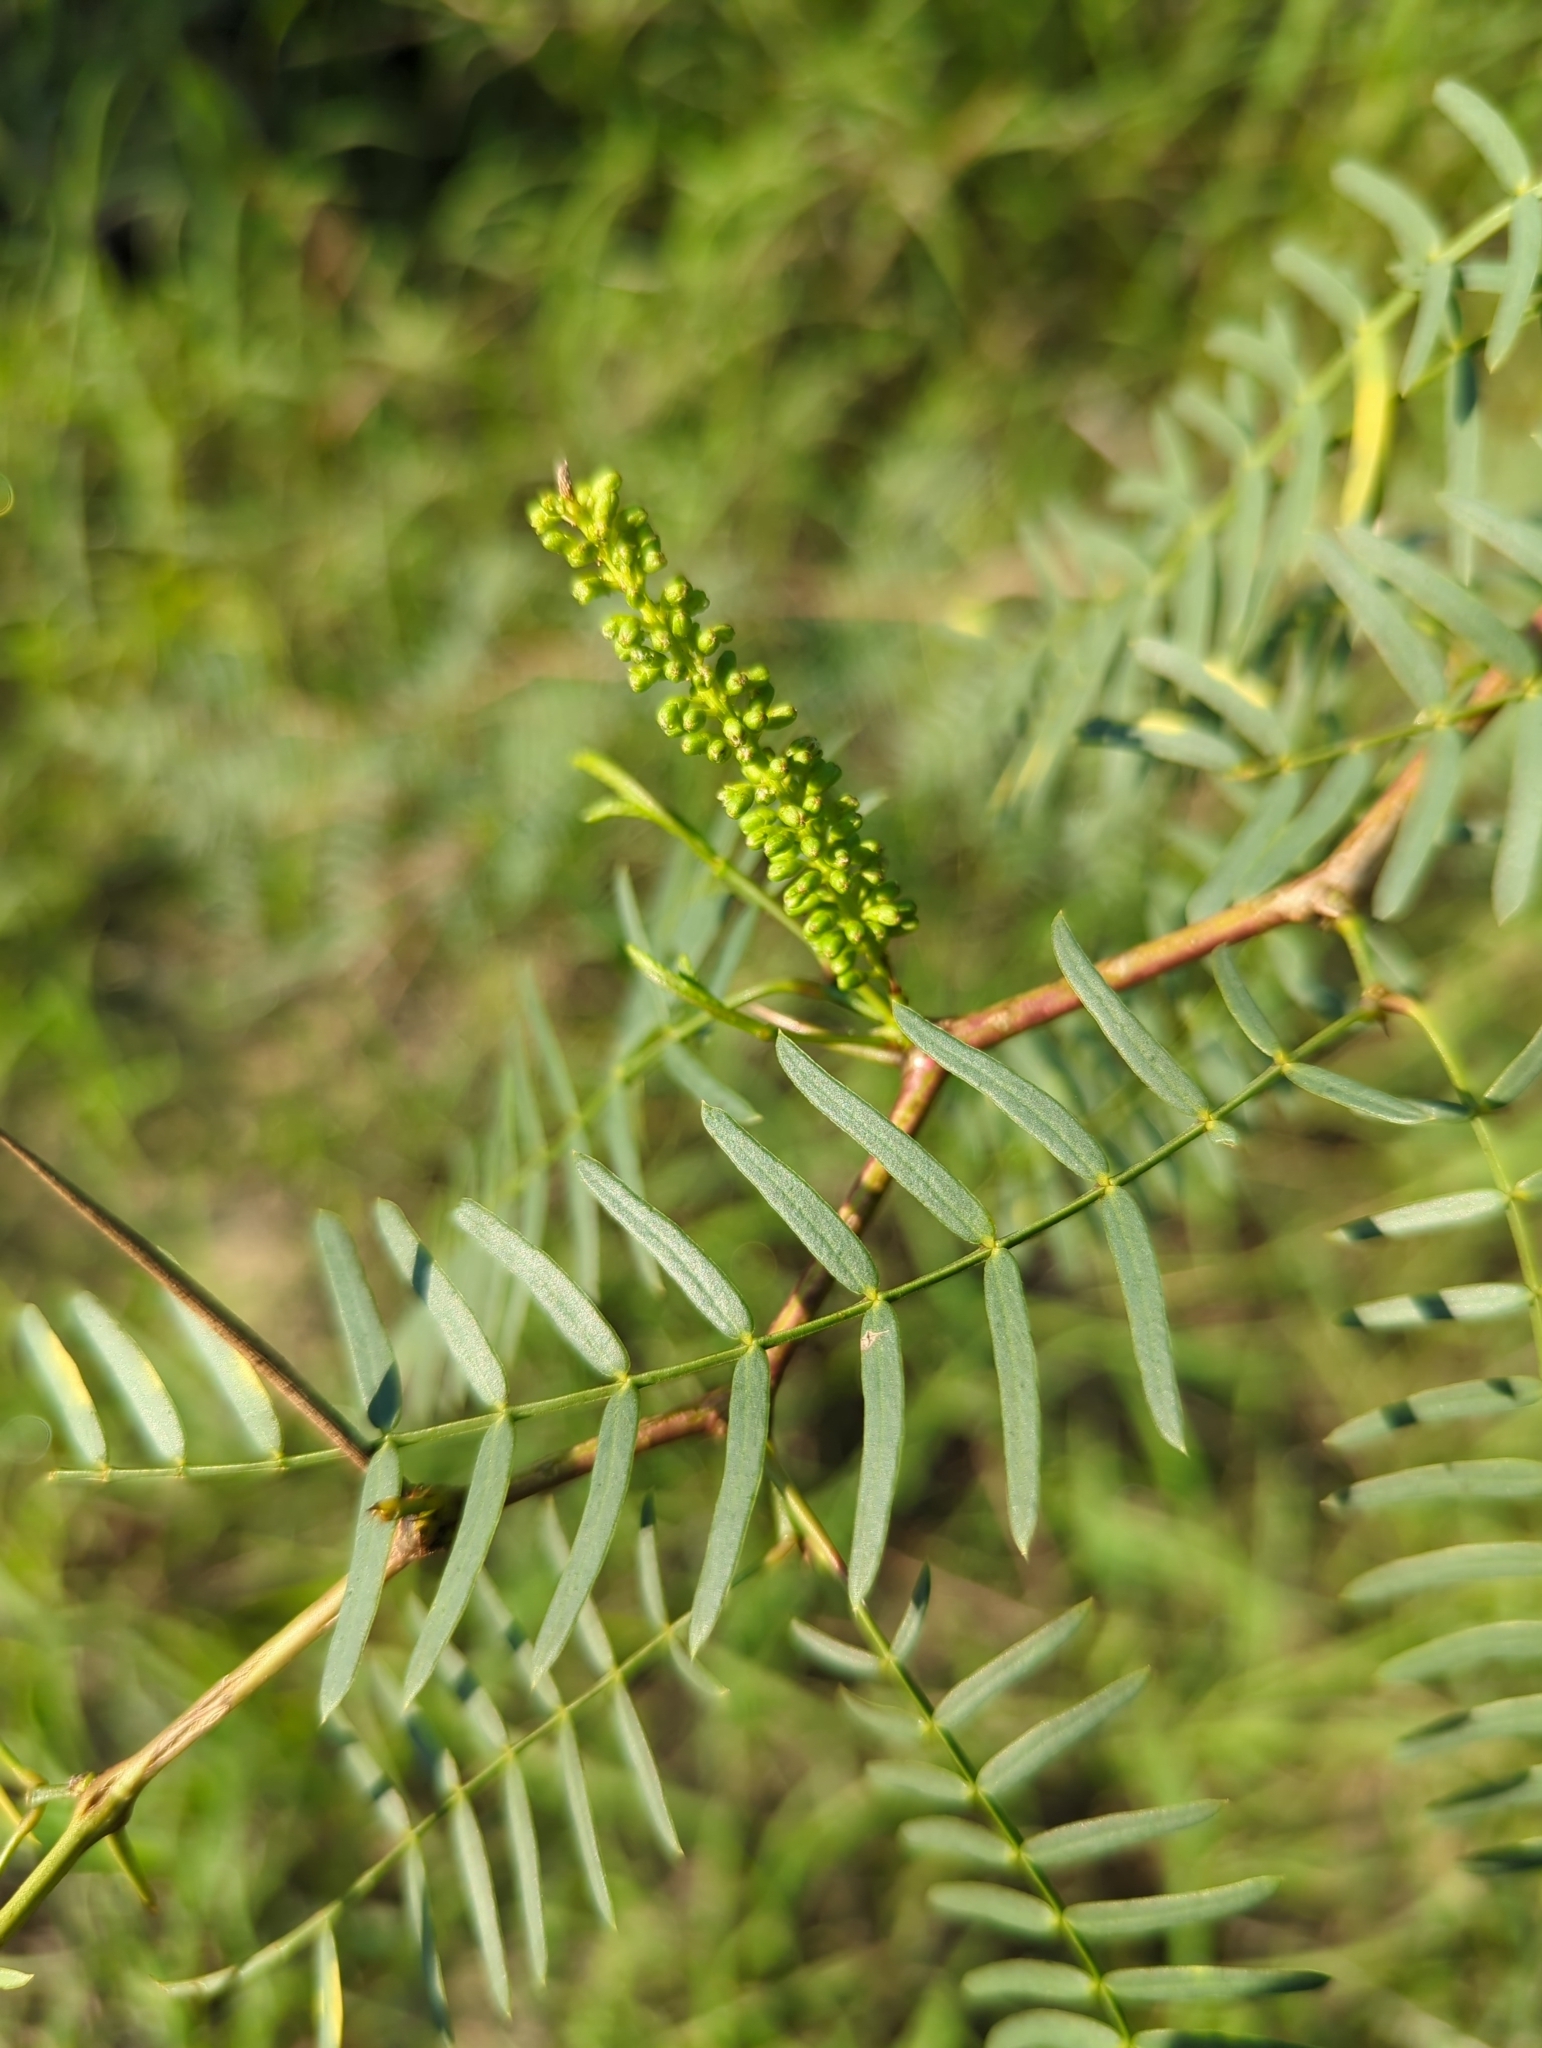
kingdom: Plantae
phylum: Tracheophyta
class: Magnoliopsida
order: Fabales
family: Fabaceae
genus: Prosopis
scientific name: Prosopis glandulosa
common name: Honey mesquite
